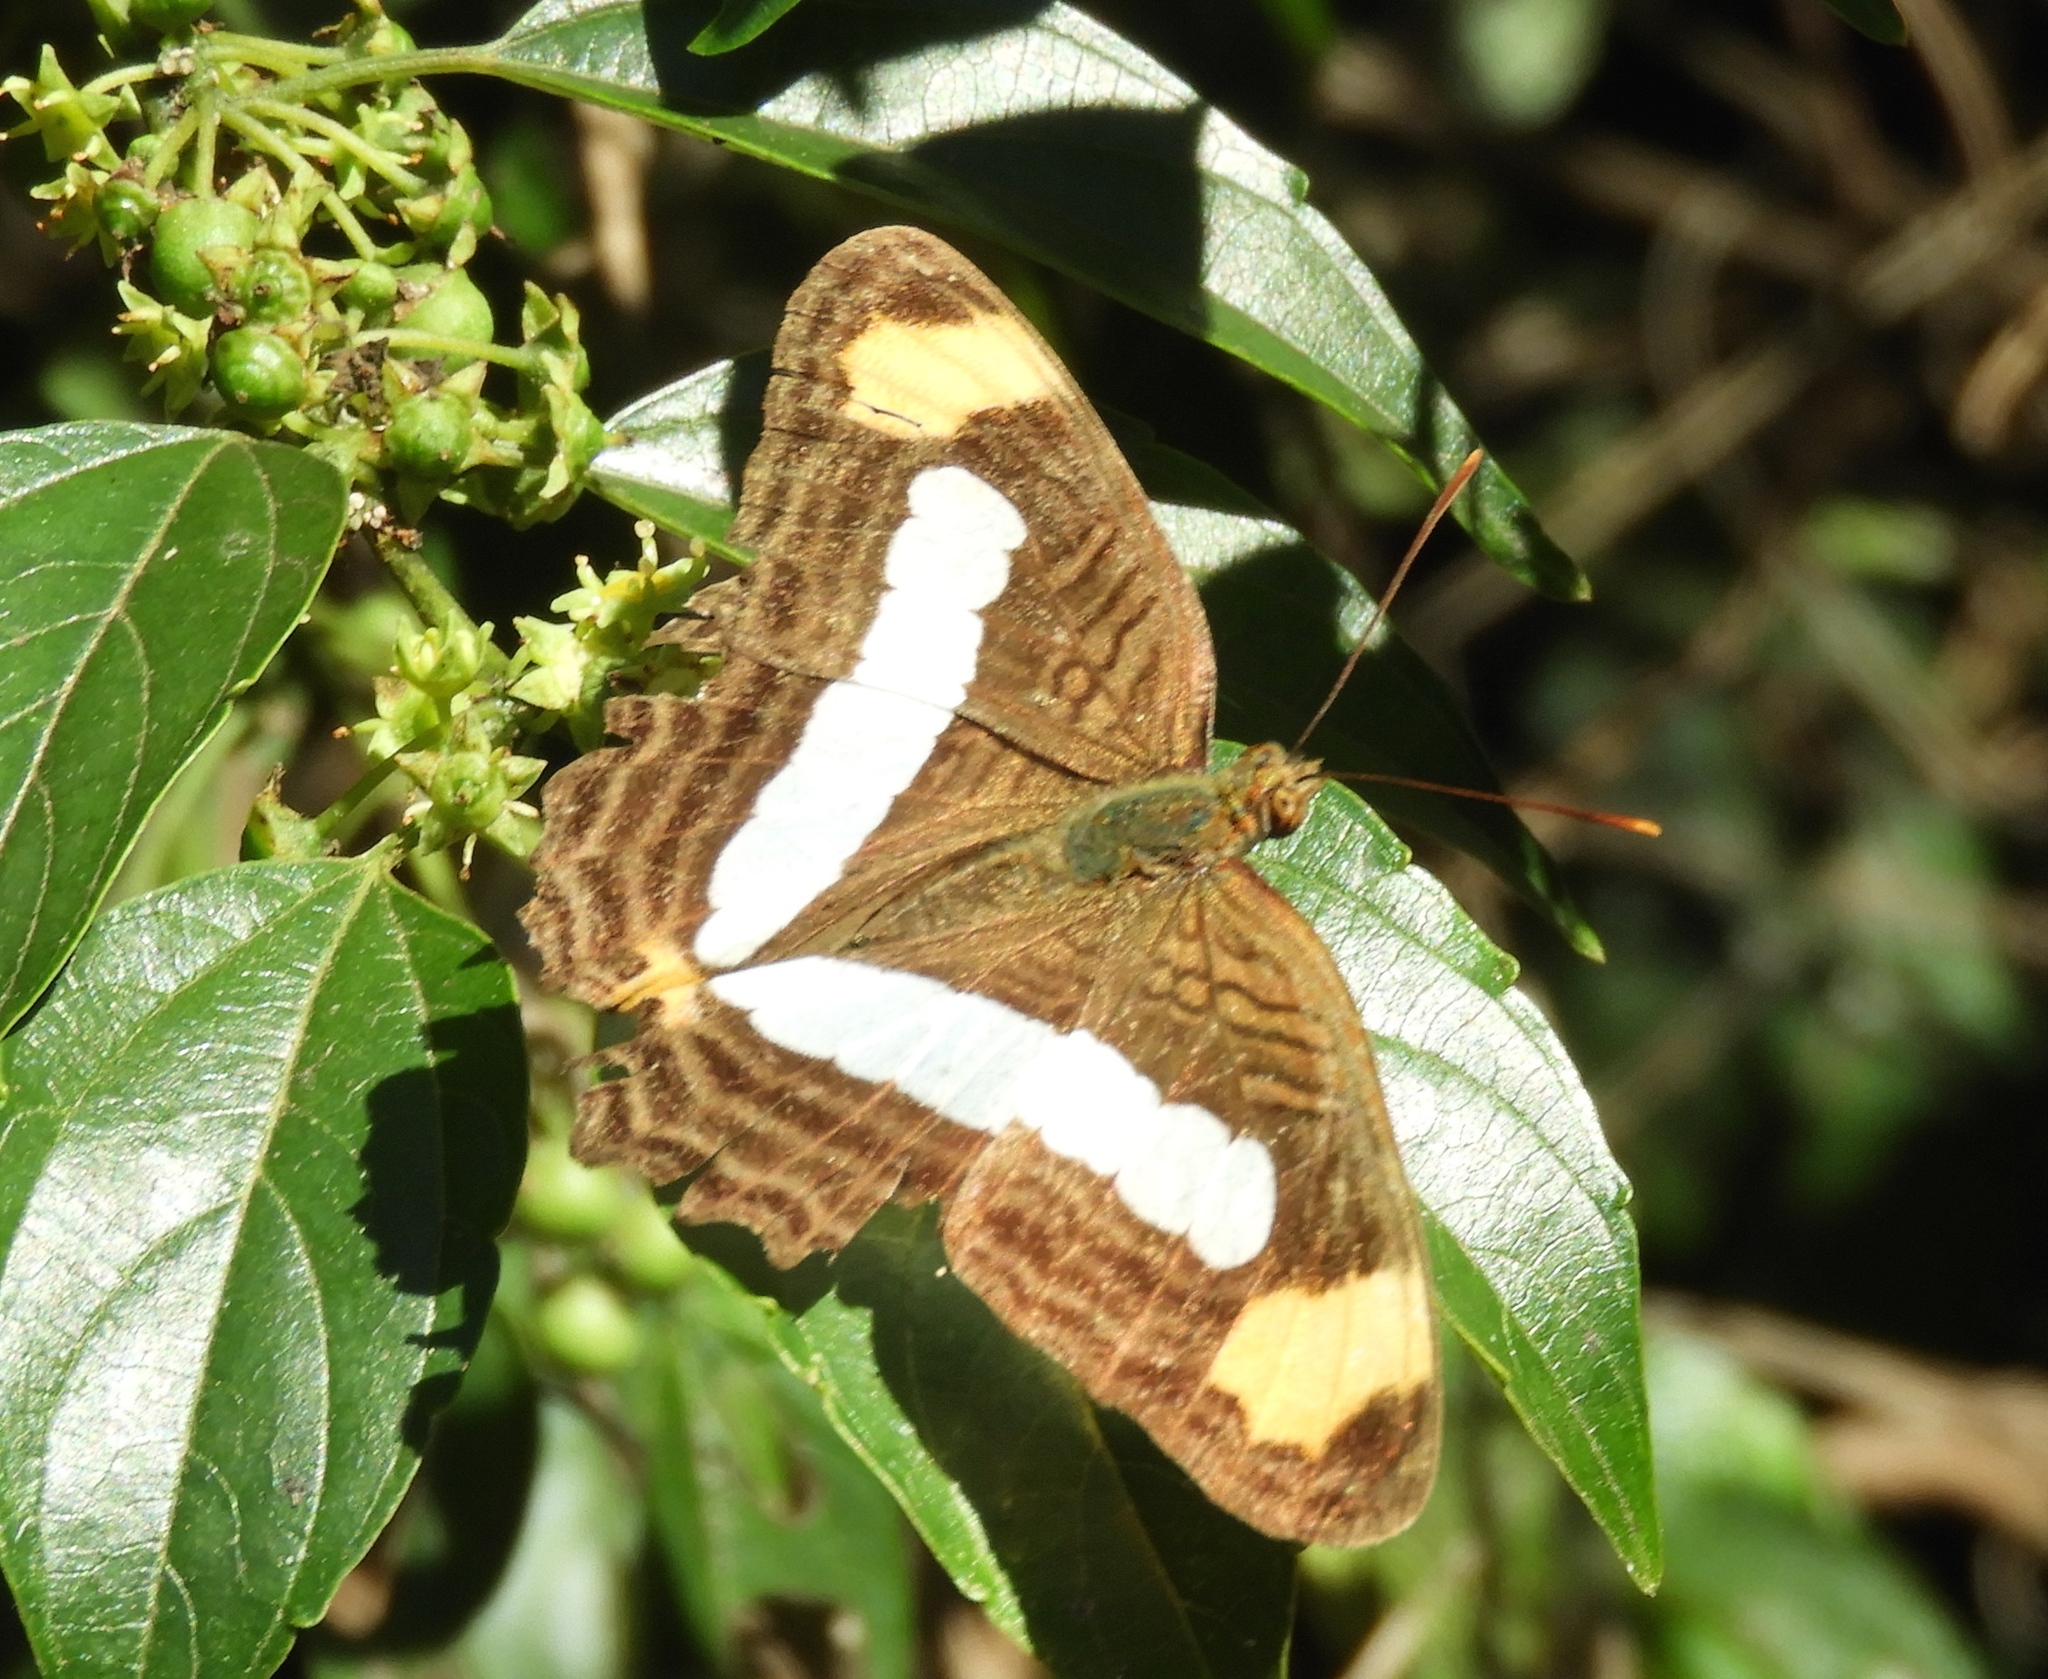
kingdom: Animalia
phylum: Arthropoda
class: Insecta
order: Lepidoptera
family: Nymphalidae
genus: Limenitis
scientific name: Limenitis iphiclus
